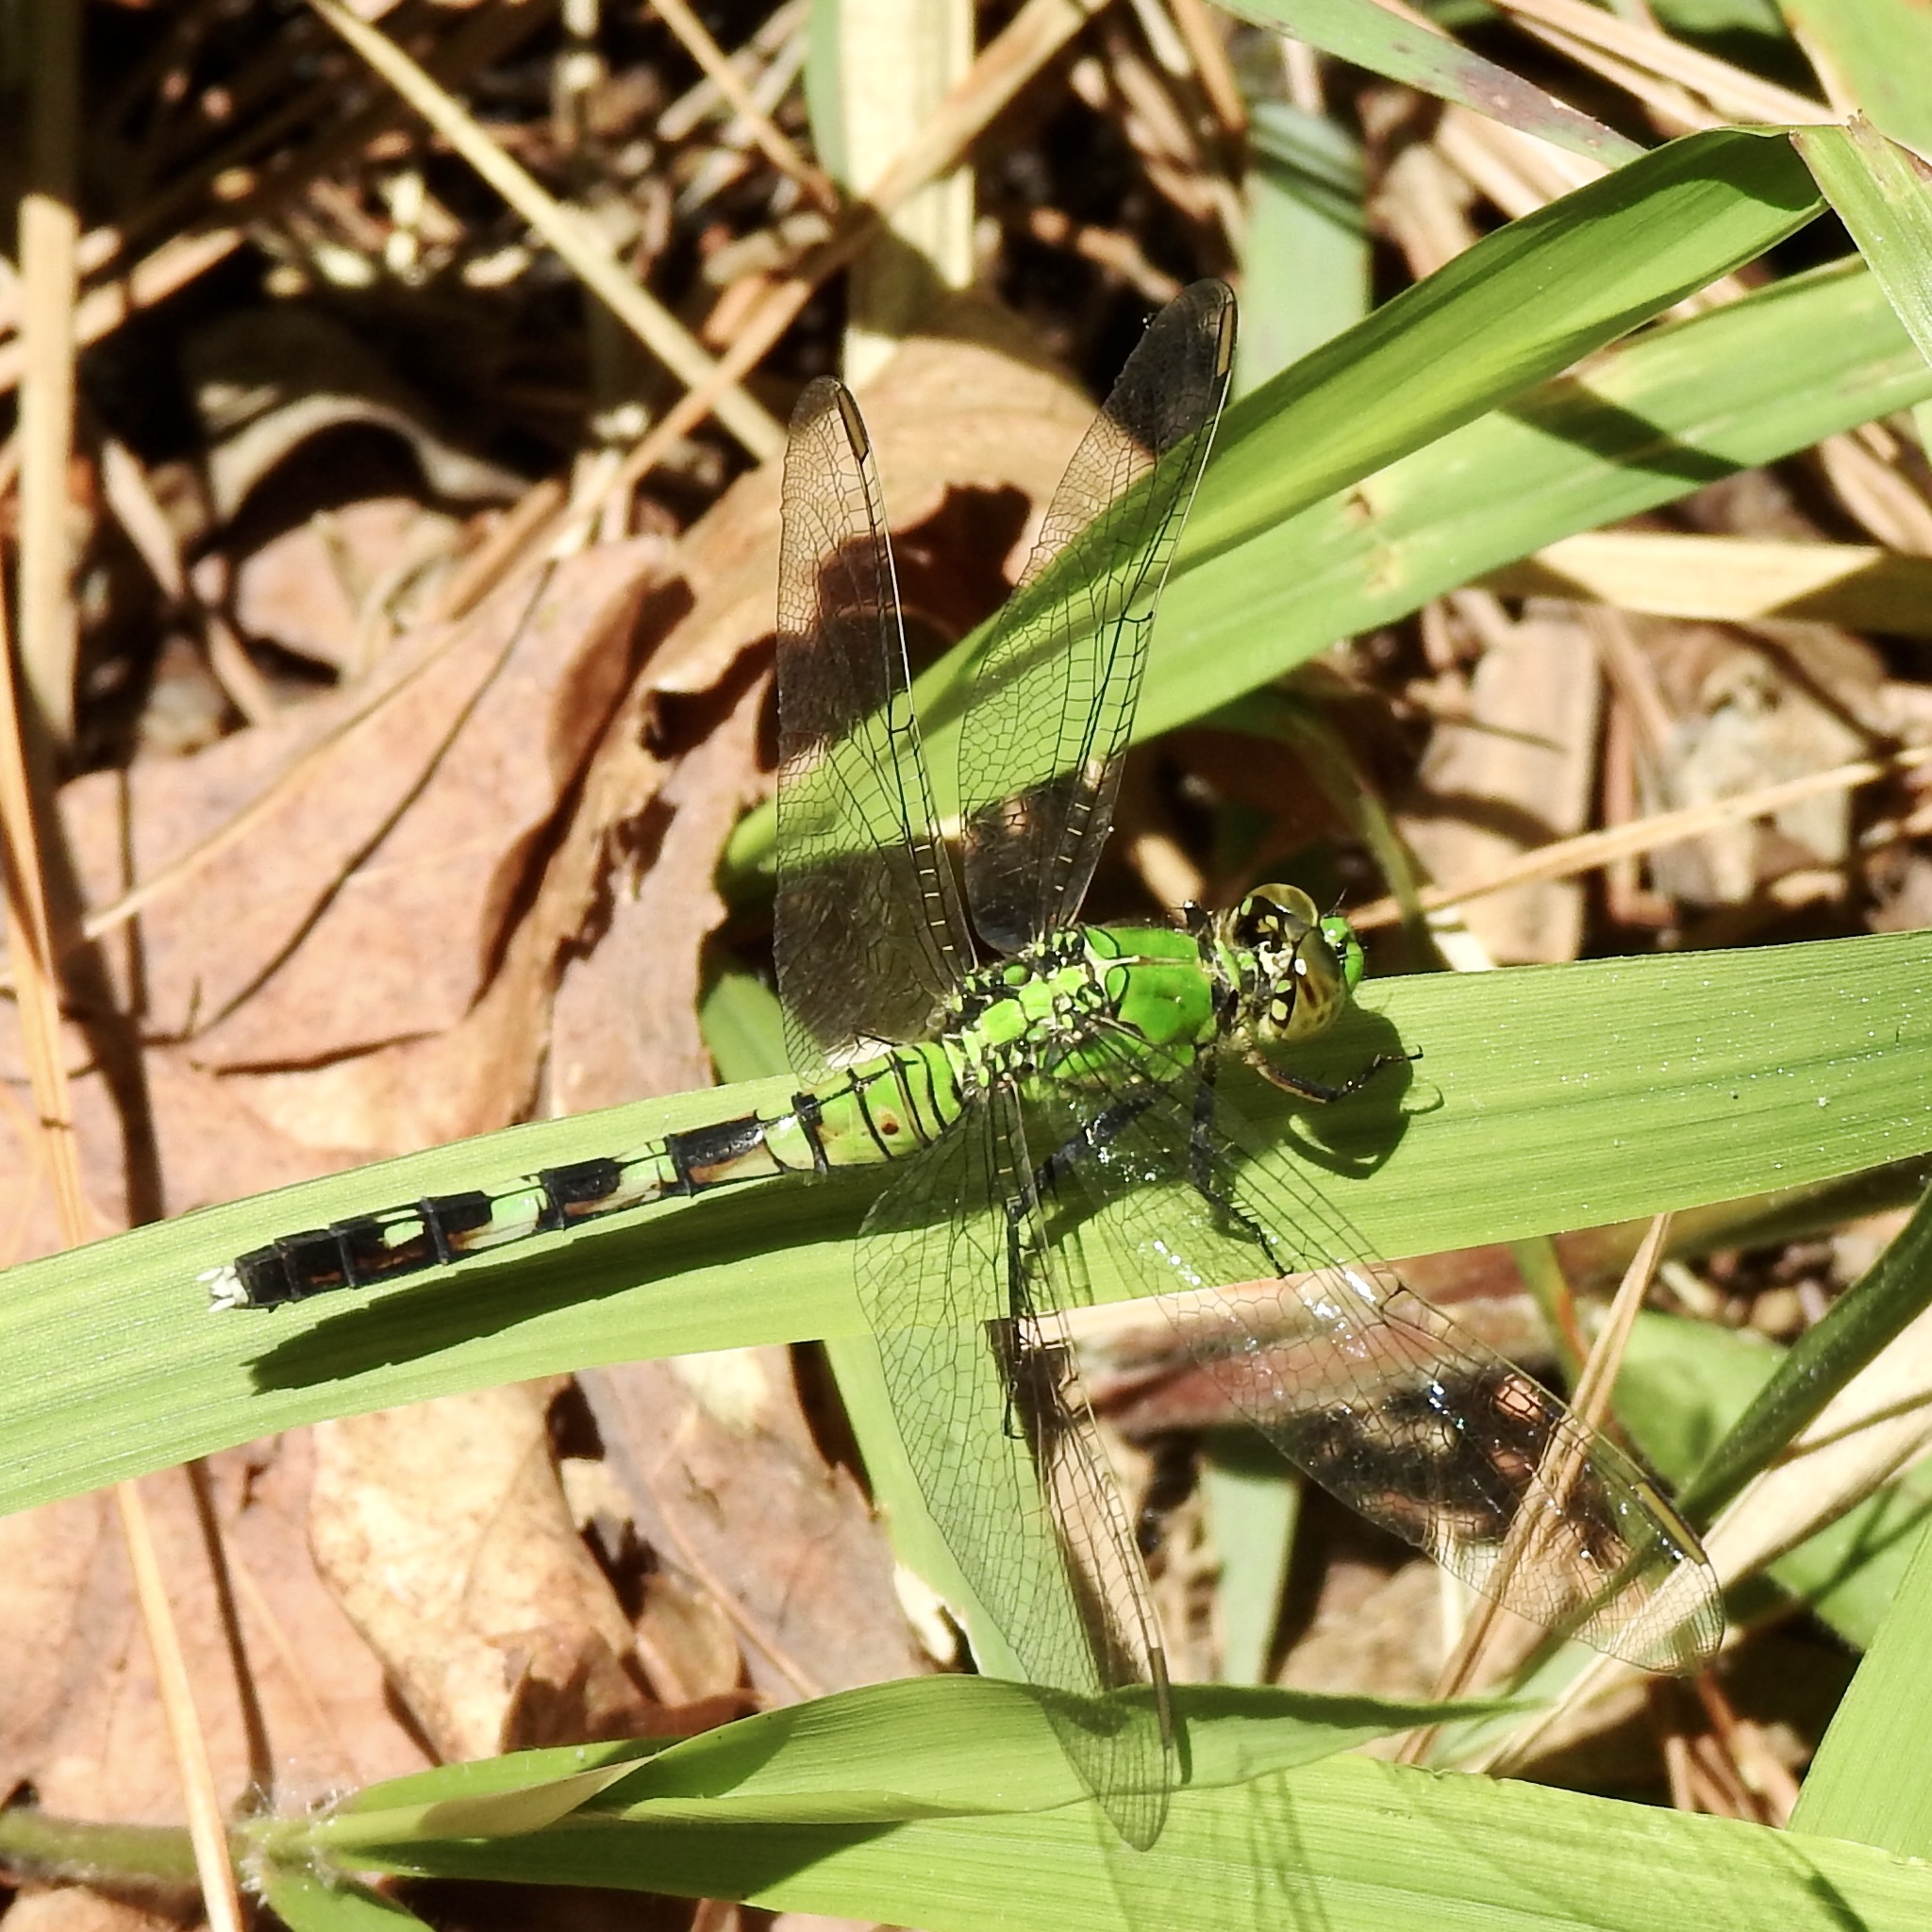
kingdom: Animalia
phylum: Arthropoda
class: Insecta
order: Odonata
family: Libellulidae
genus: Erythemis
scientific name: Erythemis simplicicollis
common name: Eastern pondhawk
